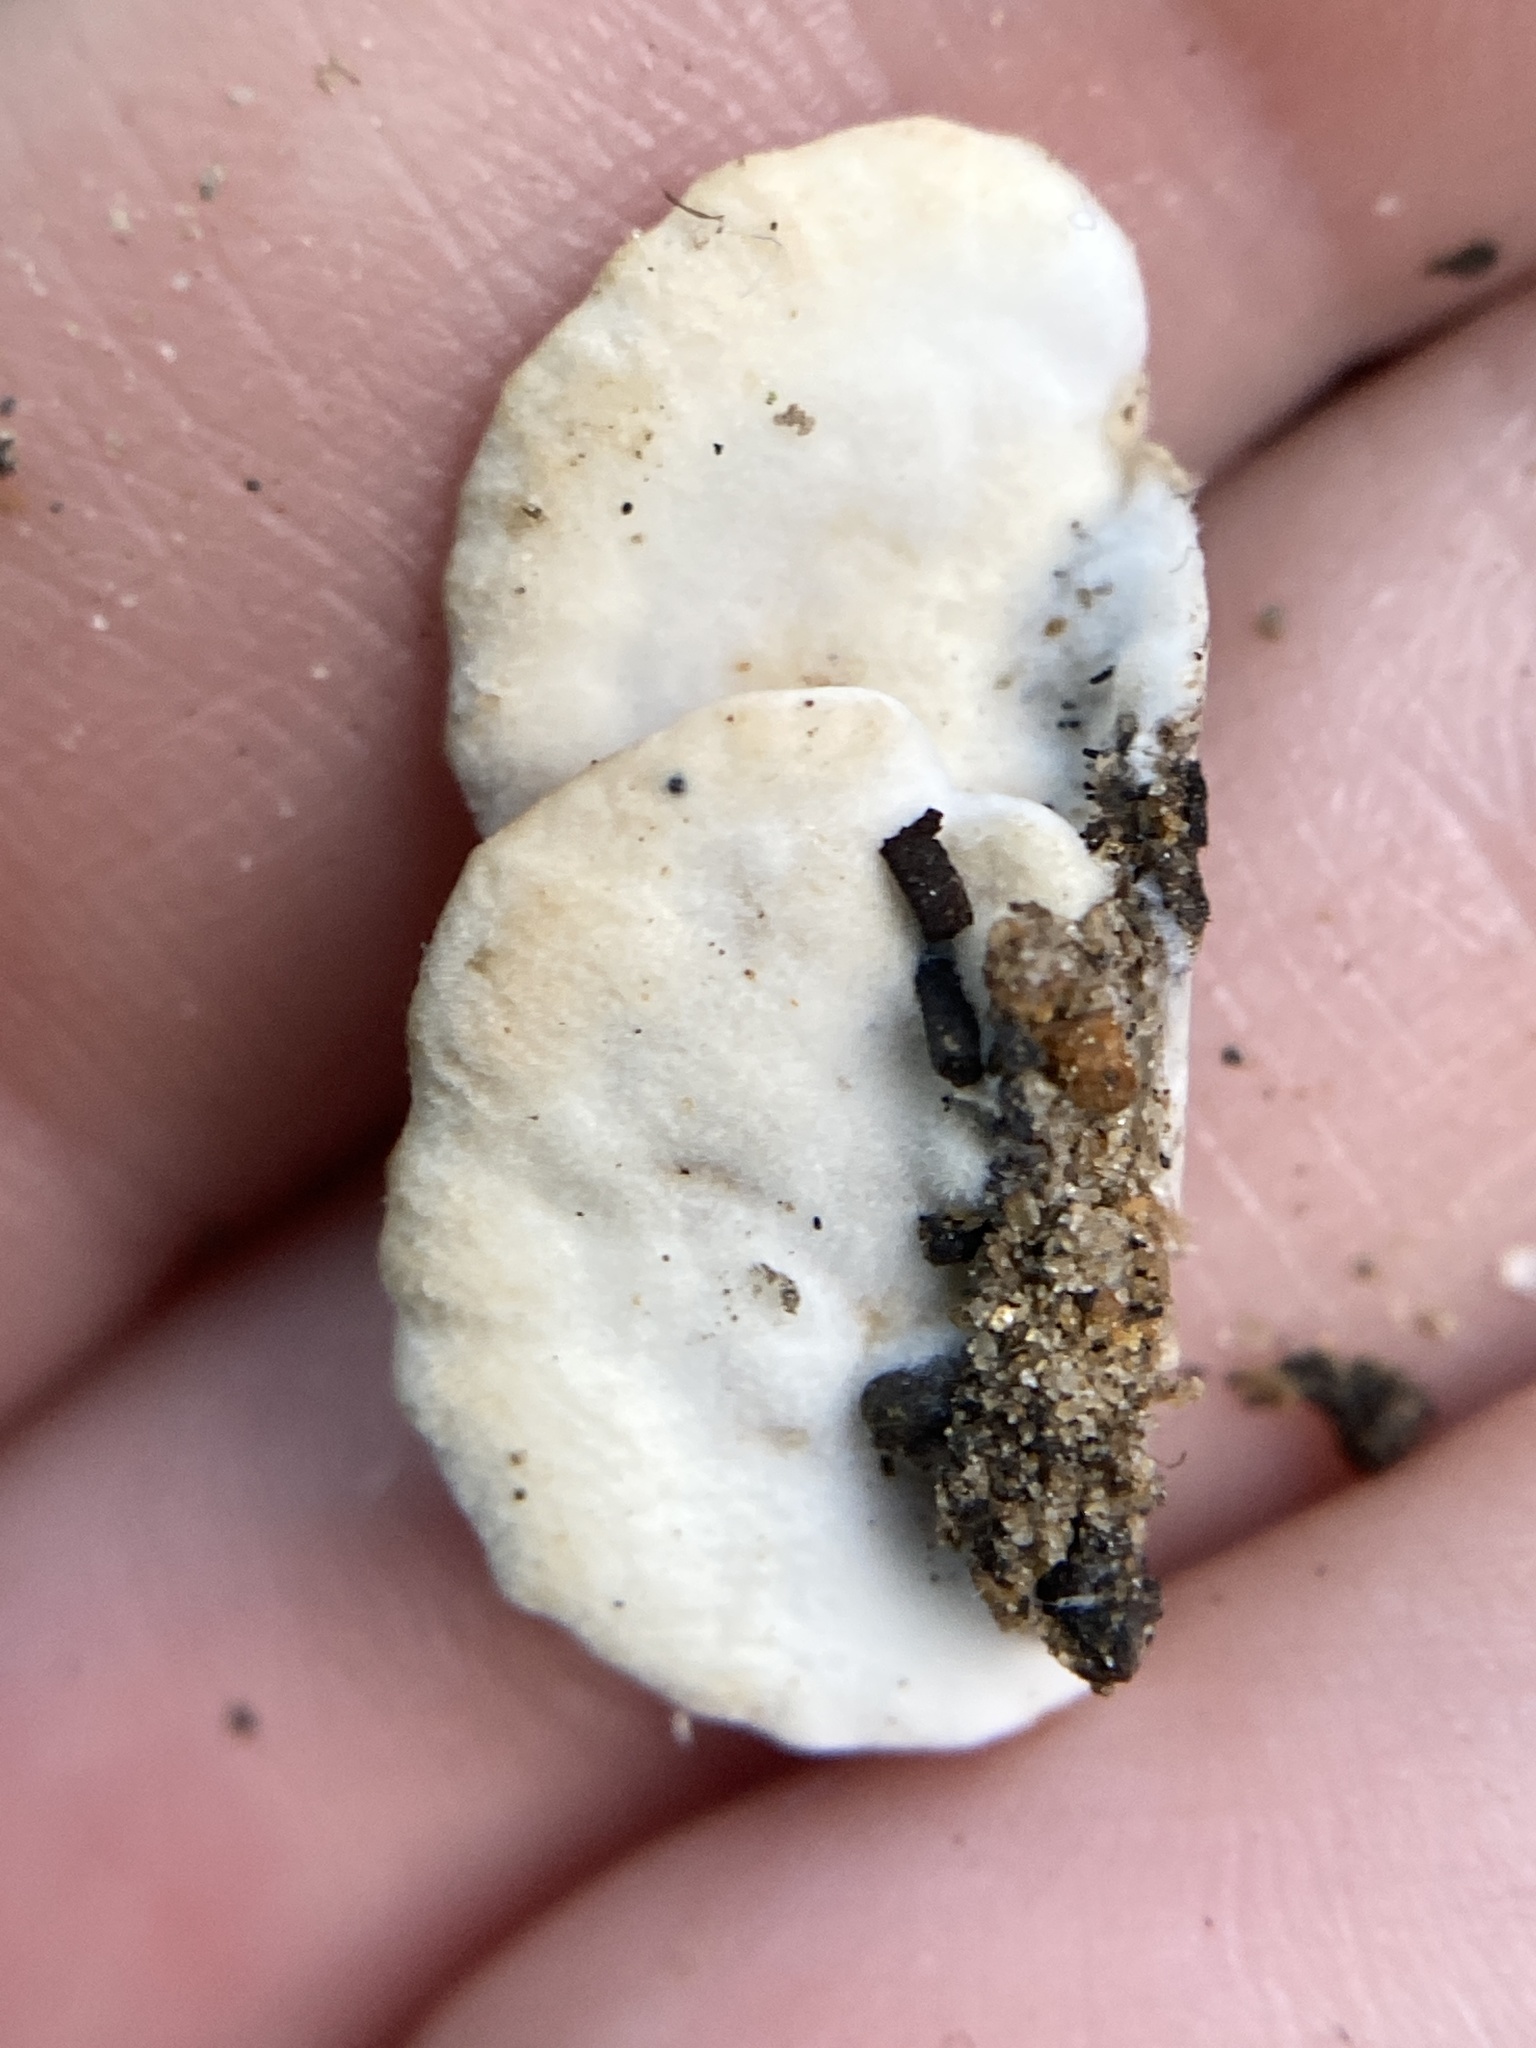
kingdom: Fungi
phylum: Basidiomycota
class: Agaricomycetes
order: Polyporales
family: Irpicaceae
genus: Vitreoporus
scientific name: Vitreoporus dichrous
